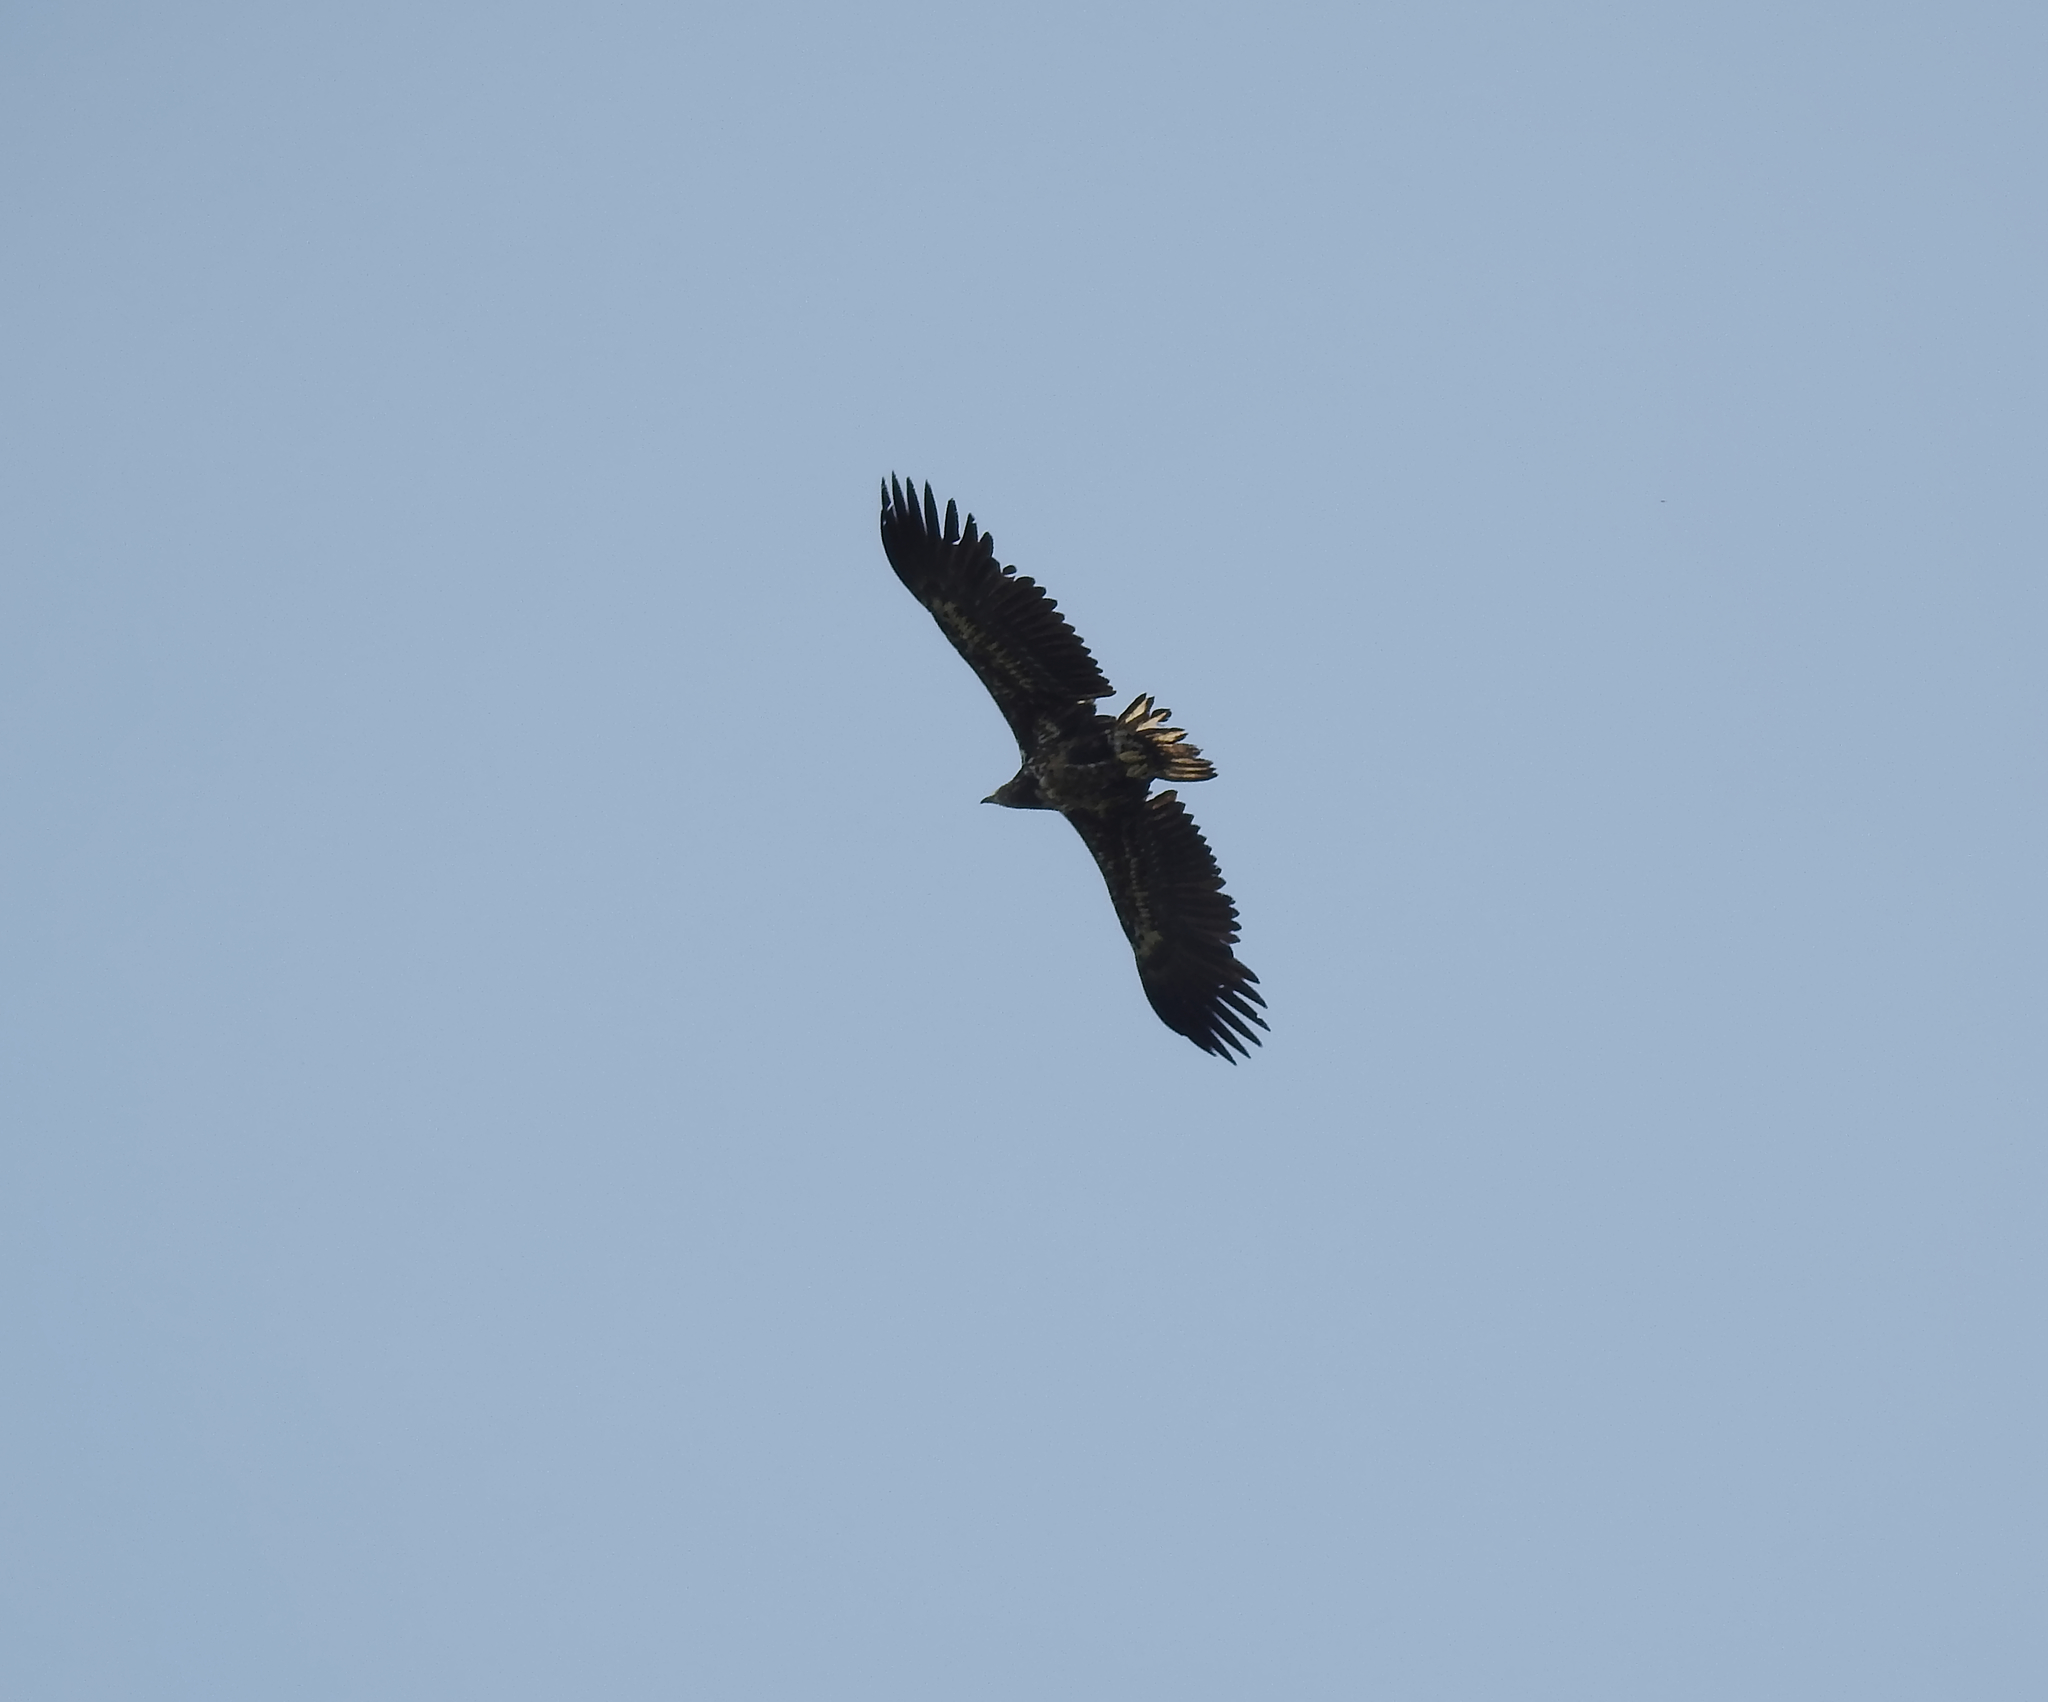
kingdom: Animalia
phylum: Chordata
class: Aves
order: Accipitriformes
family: Accipitridae
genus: Haliaeetus
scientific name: Haliaeetus albicilla
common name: White-tailed eagle
